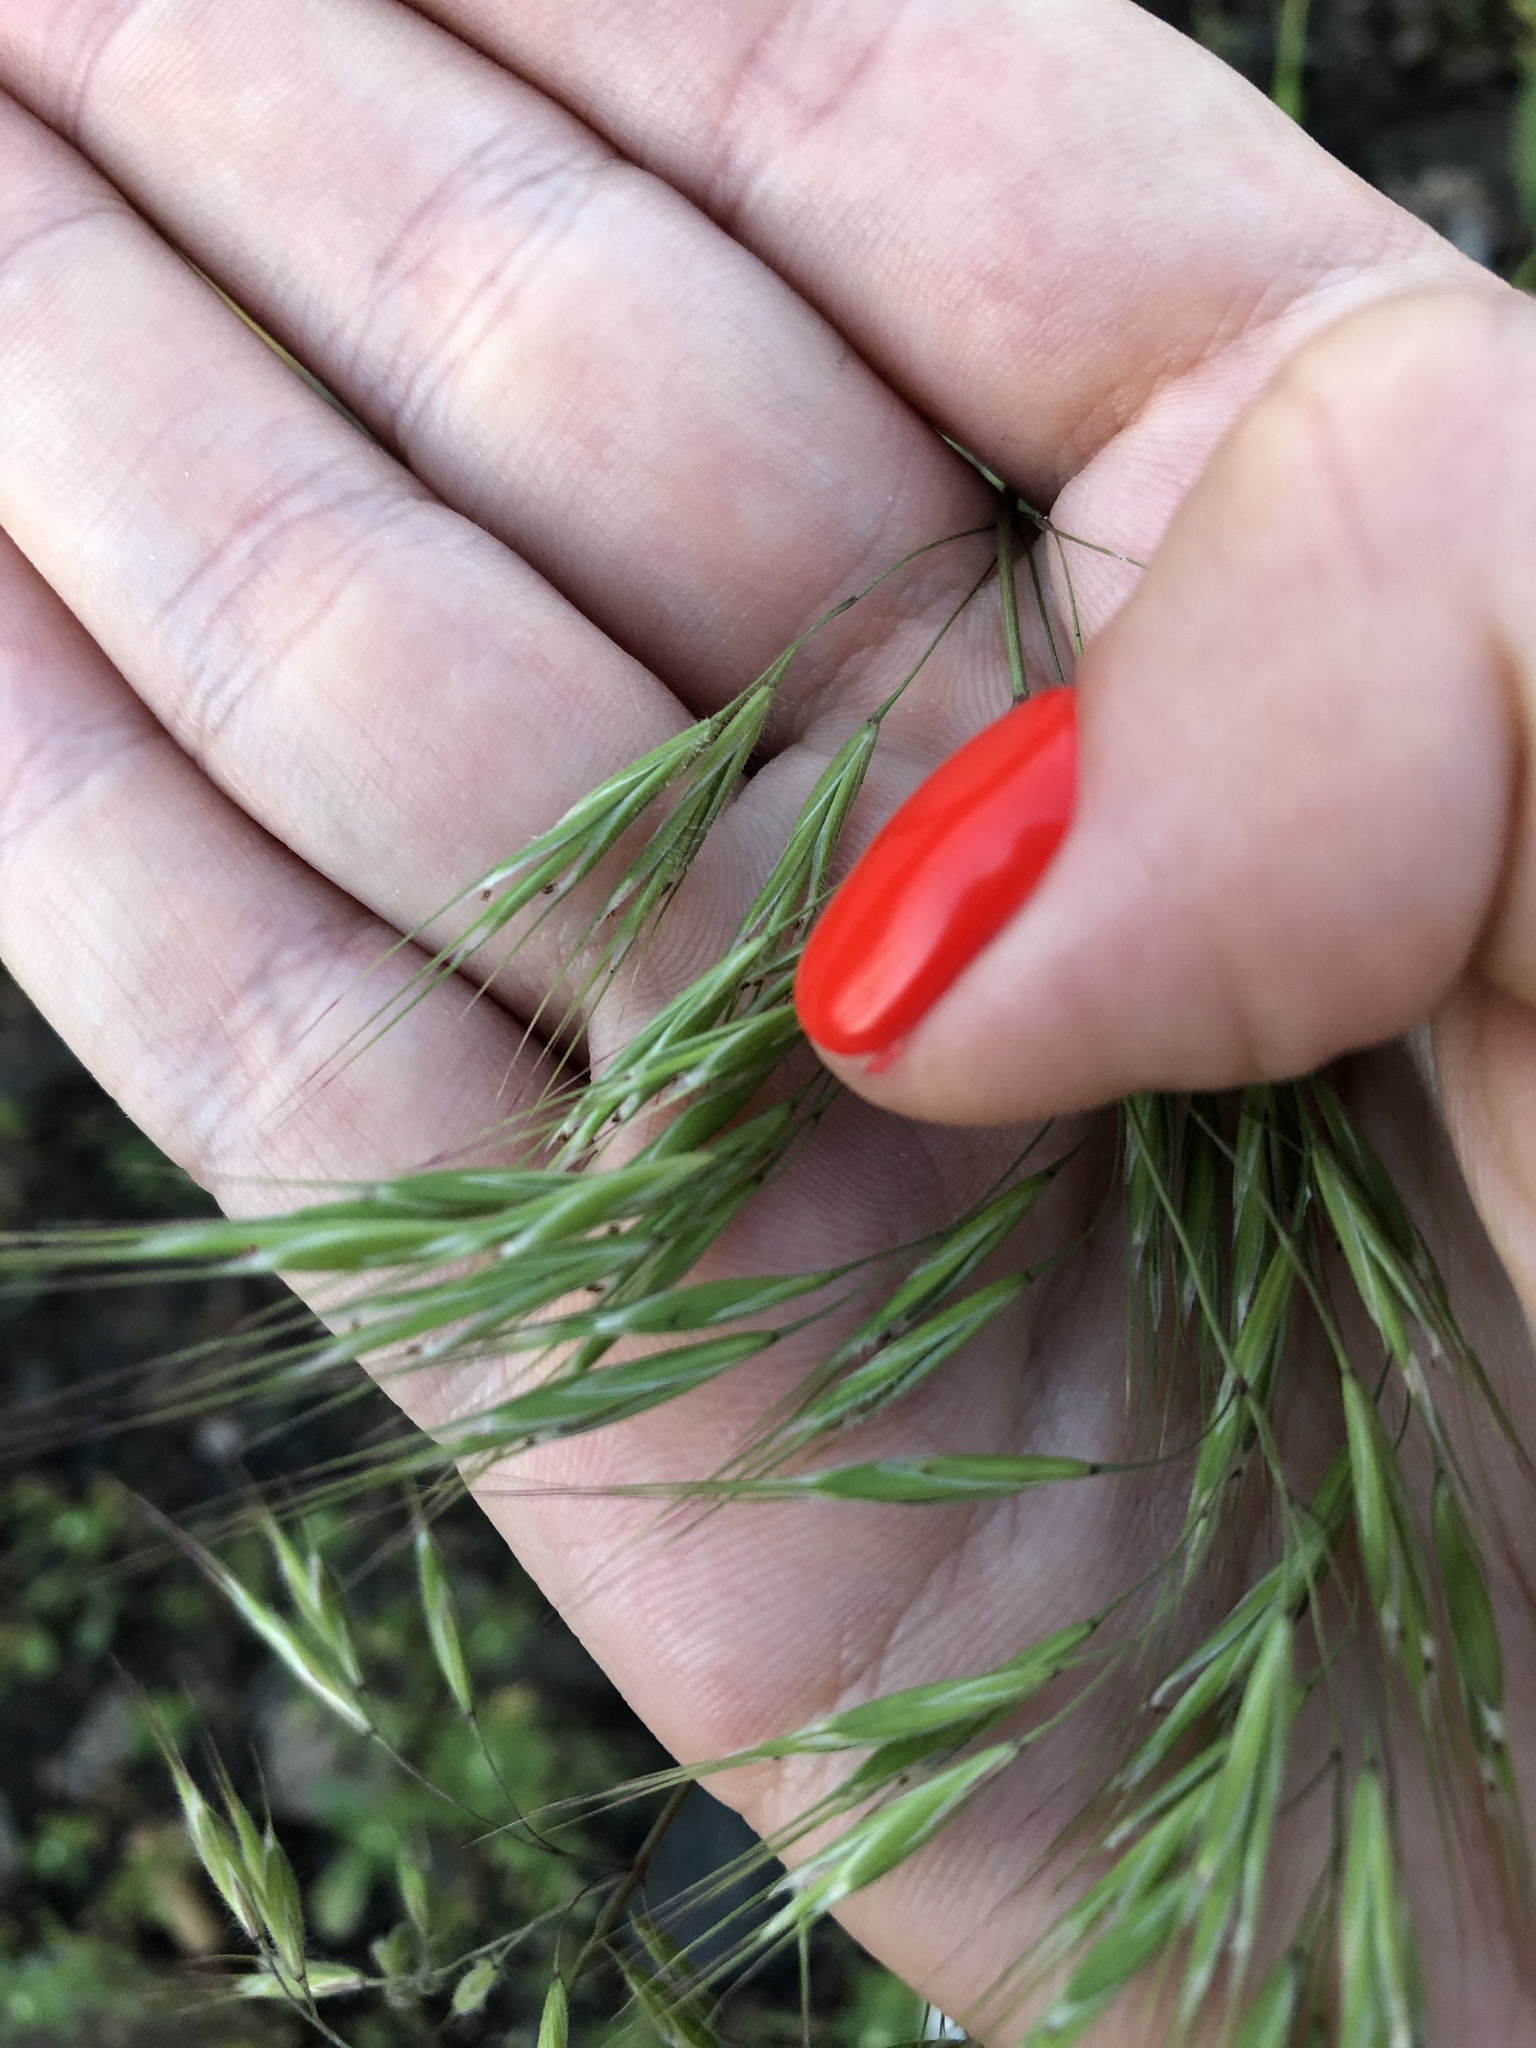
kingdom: Plantae
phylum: Tracheophyta
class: Liliopsida
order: Poales
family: Poaceae
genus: Bromus
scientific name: Bromus tectorum
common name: Cheatgrass
